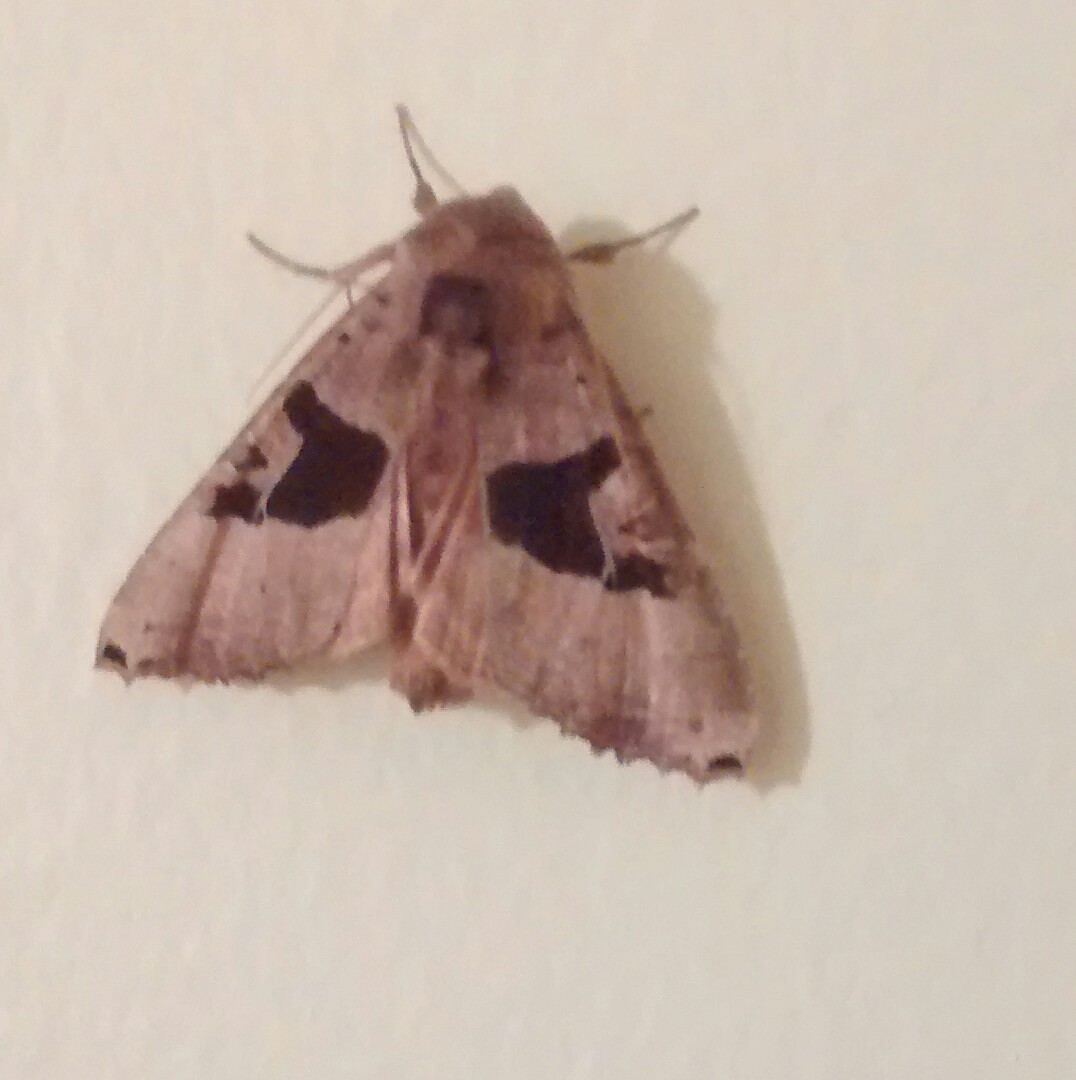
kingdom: Animalia
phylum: Arthropoda
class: Insecta
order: Lepidoptera
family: Noctuidae
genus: Phlogophora
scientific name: Phlogophora periculosa
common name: Brown angle shades
